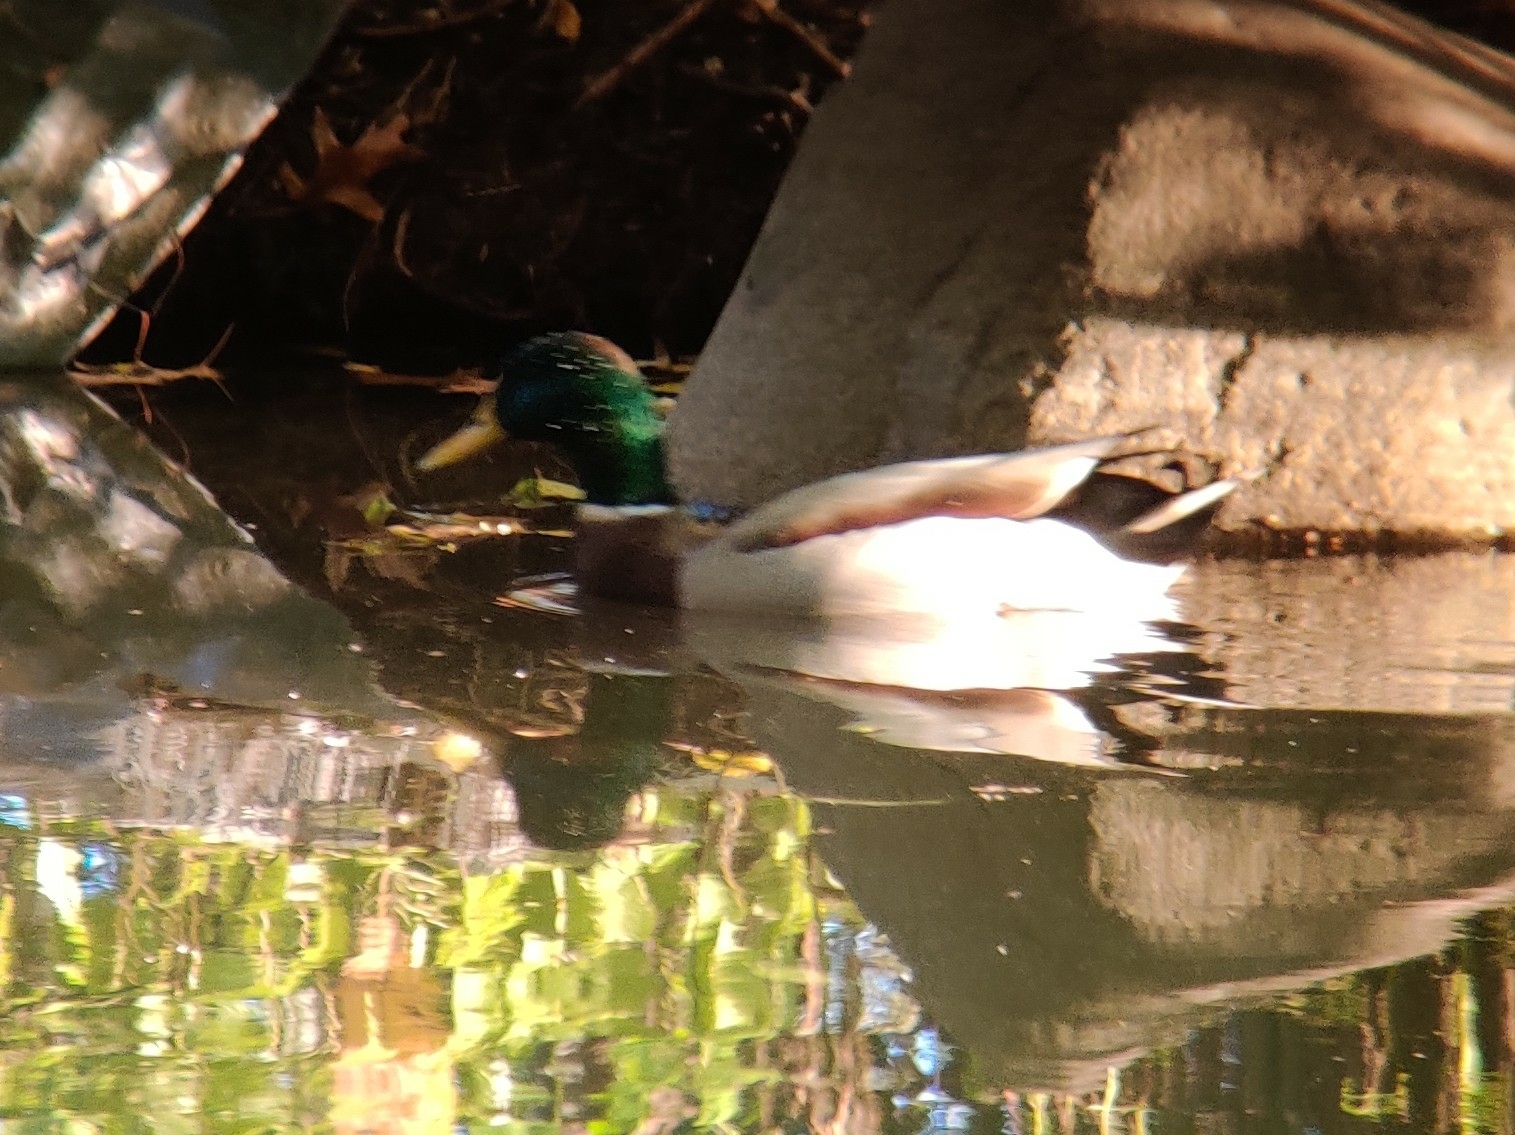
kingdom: Animalia
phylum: Chordata
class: Aves
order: Anseriformes
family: Anatidae
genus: Anas
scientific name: Anas platyrhynchos
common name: Mallard
